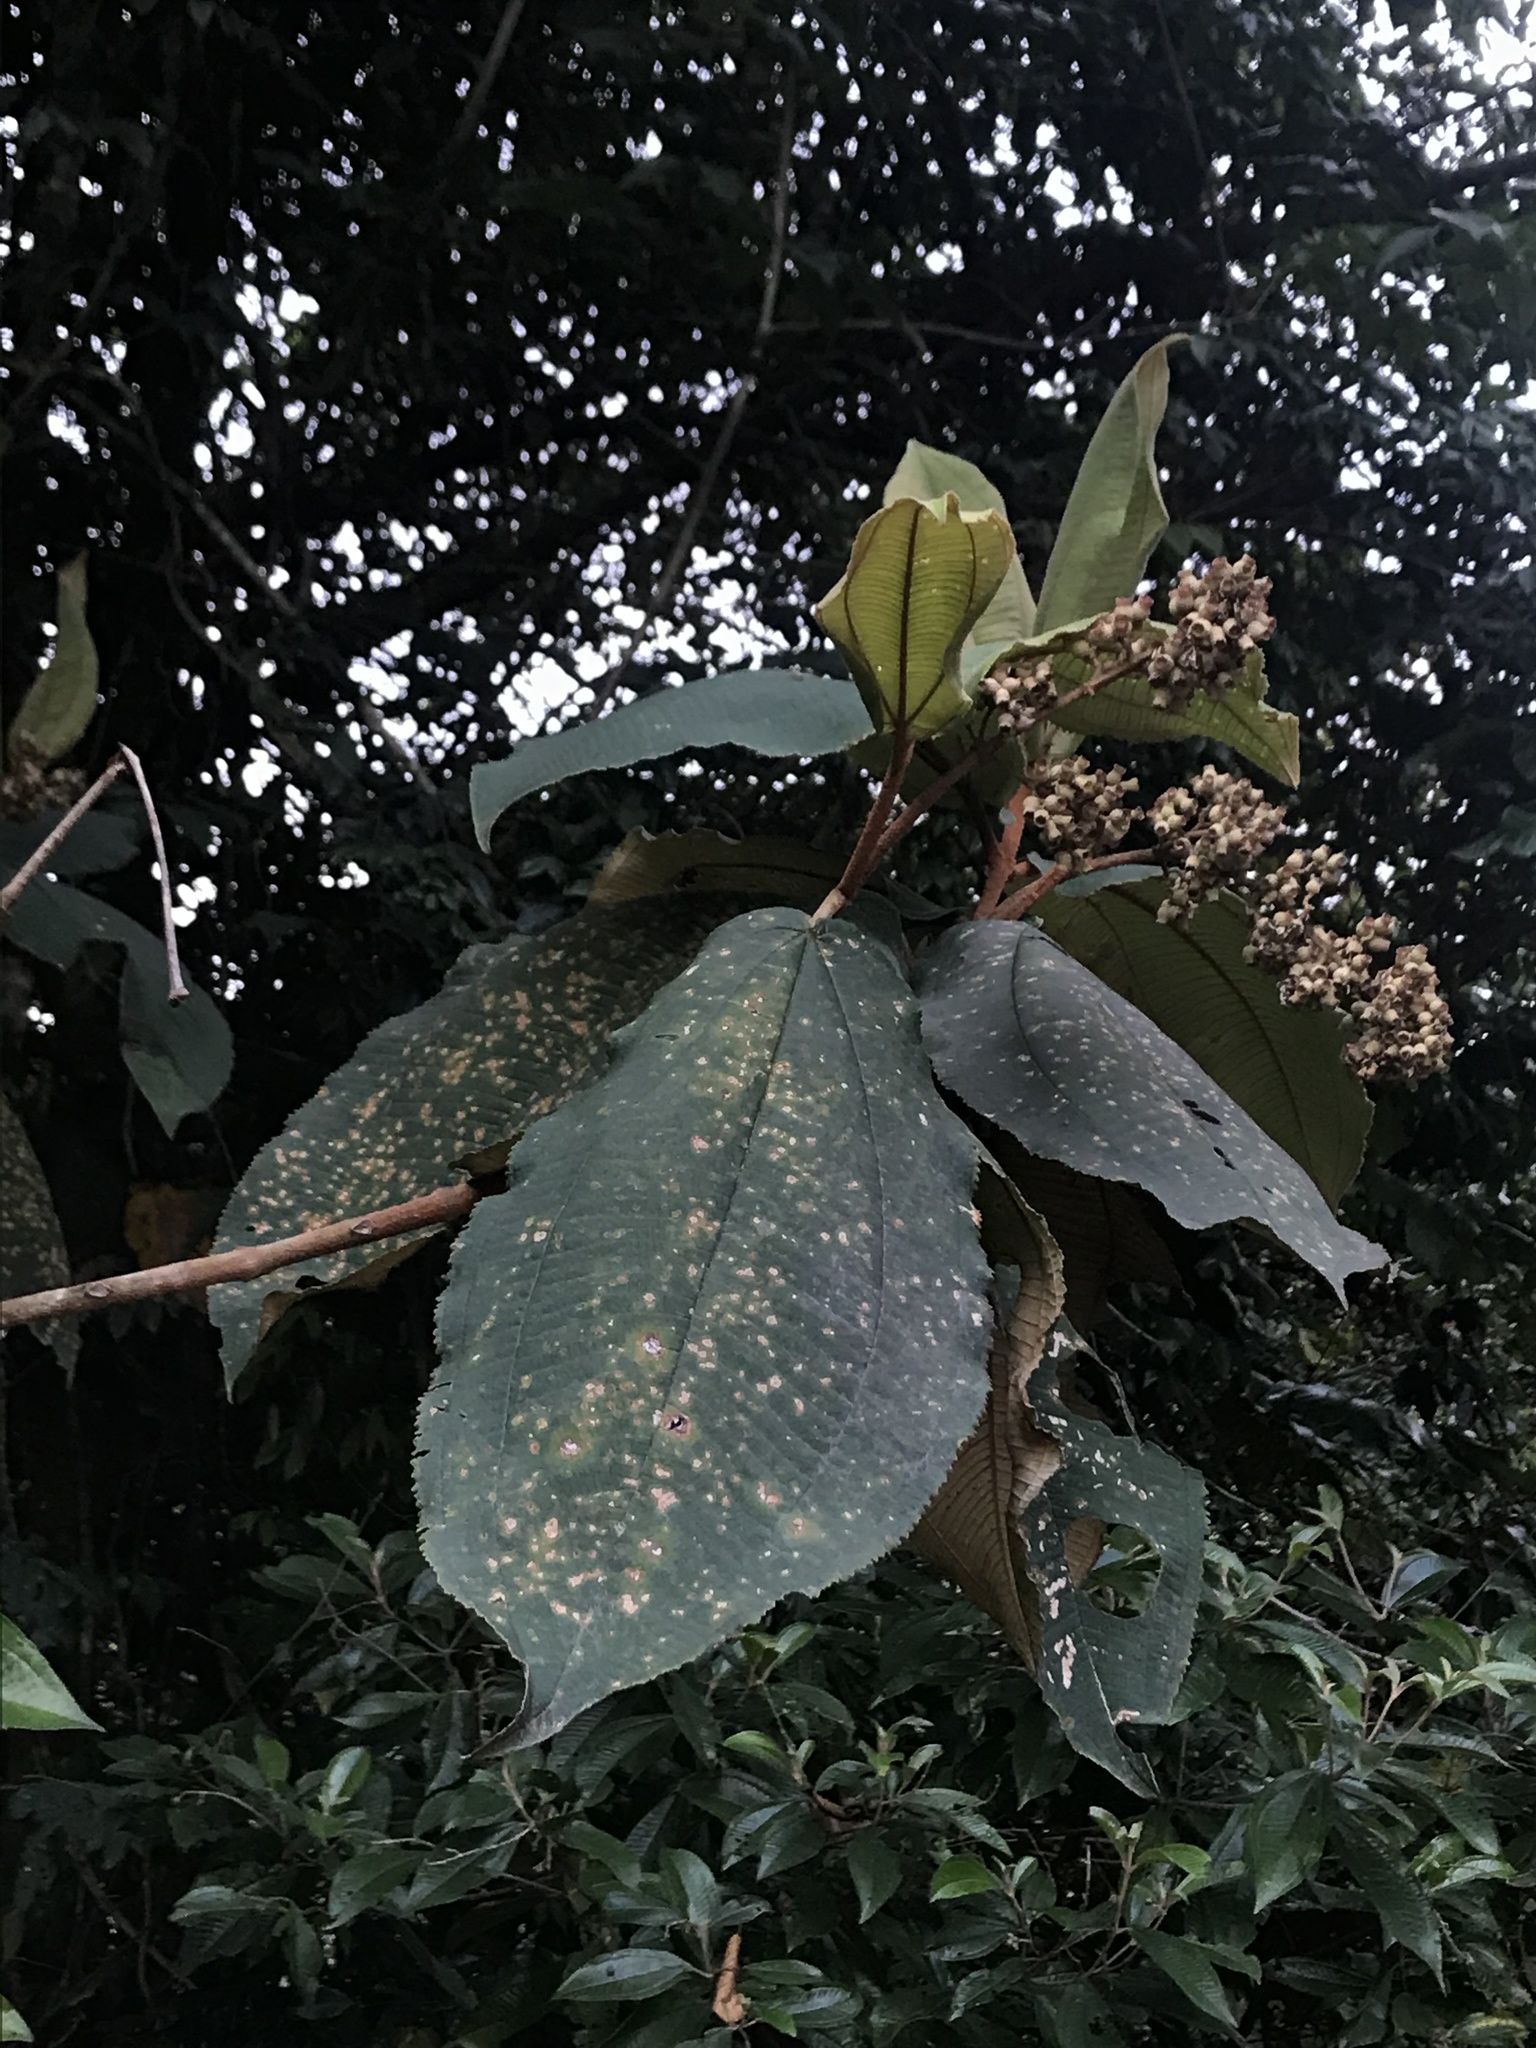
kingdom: Plantae
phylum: Tracheophyta
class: Magnoliopsida
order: Myrtales
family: Melastomataceae
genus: Miconia
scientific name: Miconia bubalina
